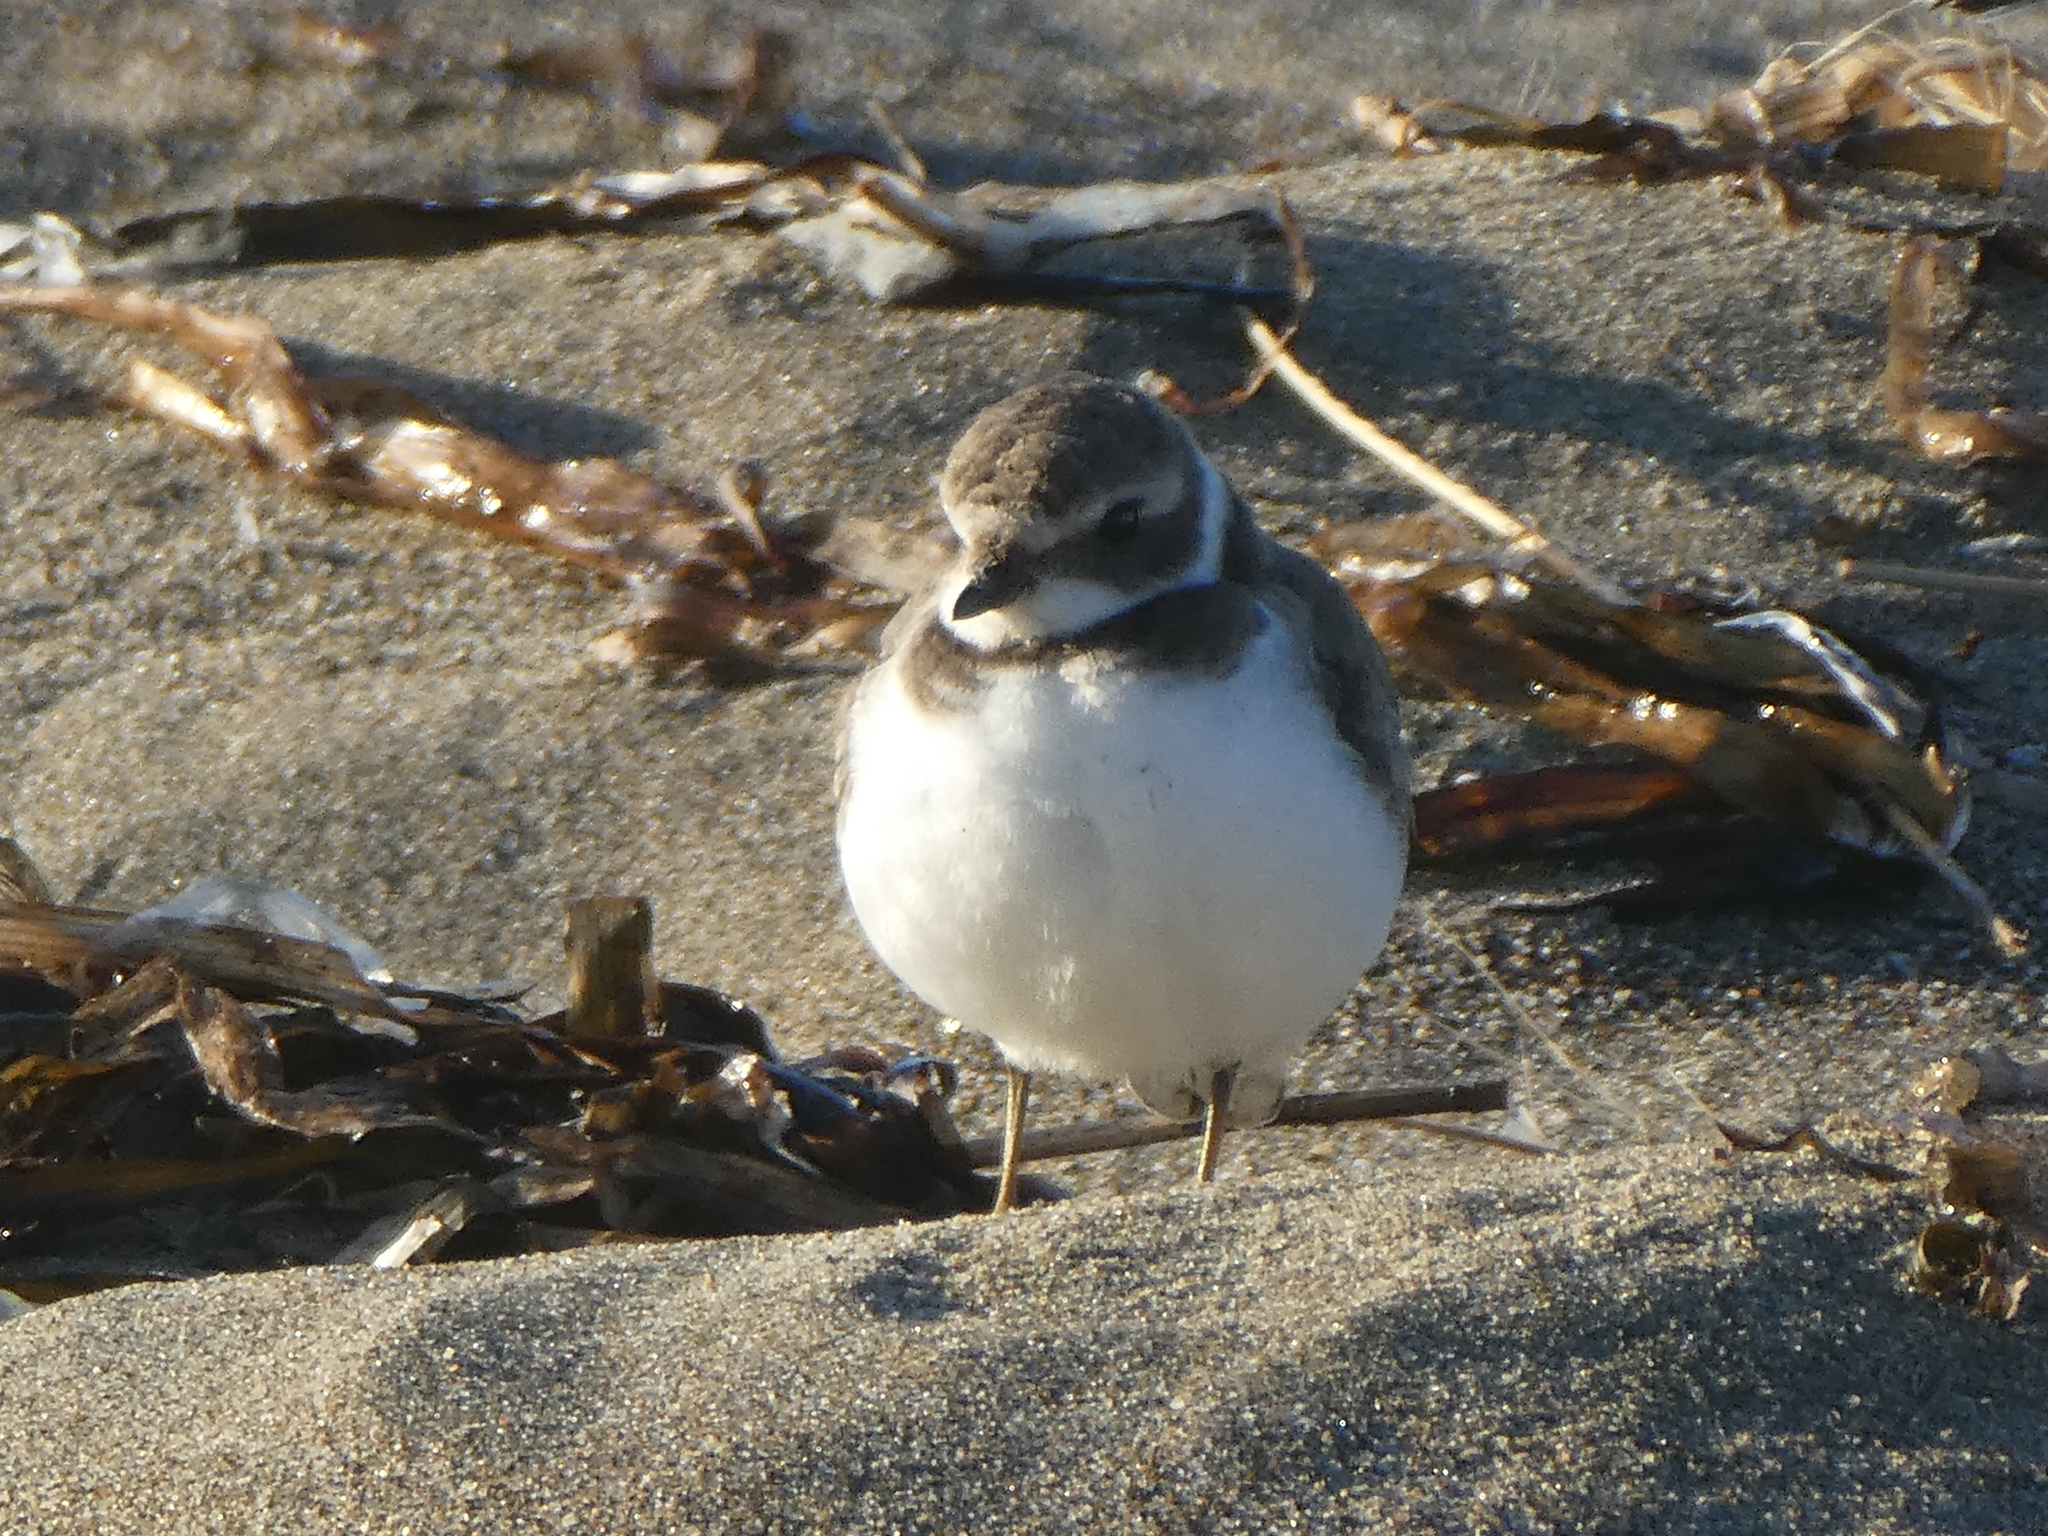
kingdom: Animalia
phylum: Chordata
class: Aves
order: Charadriiformes
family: Charadriidae
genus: Charadrius
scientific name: Charadrius semipalmatus
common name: Semipalmated plover
